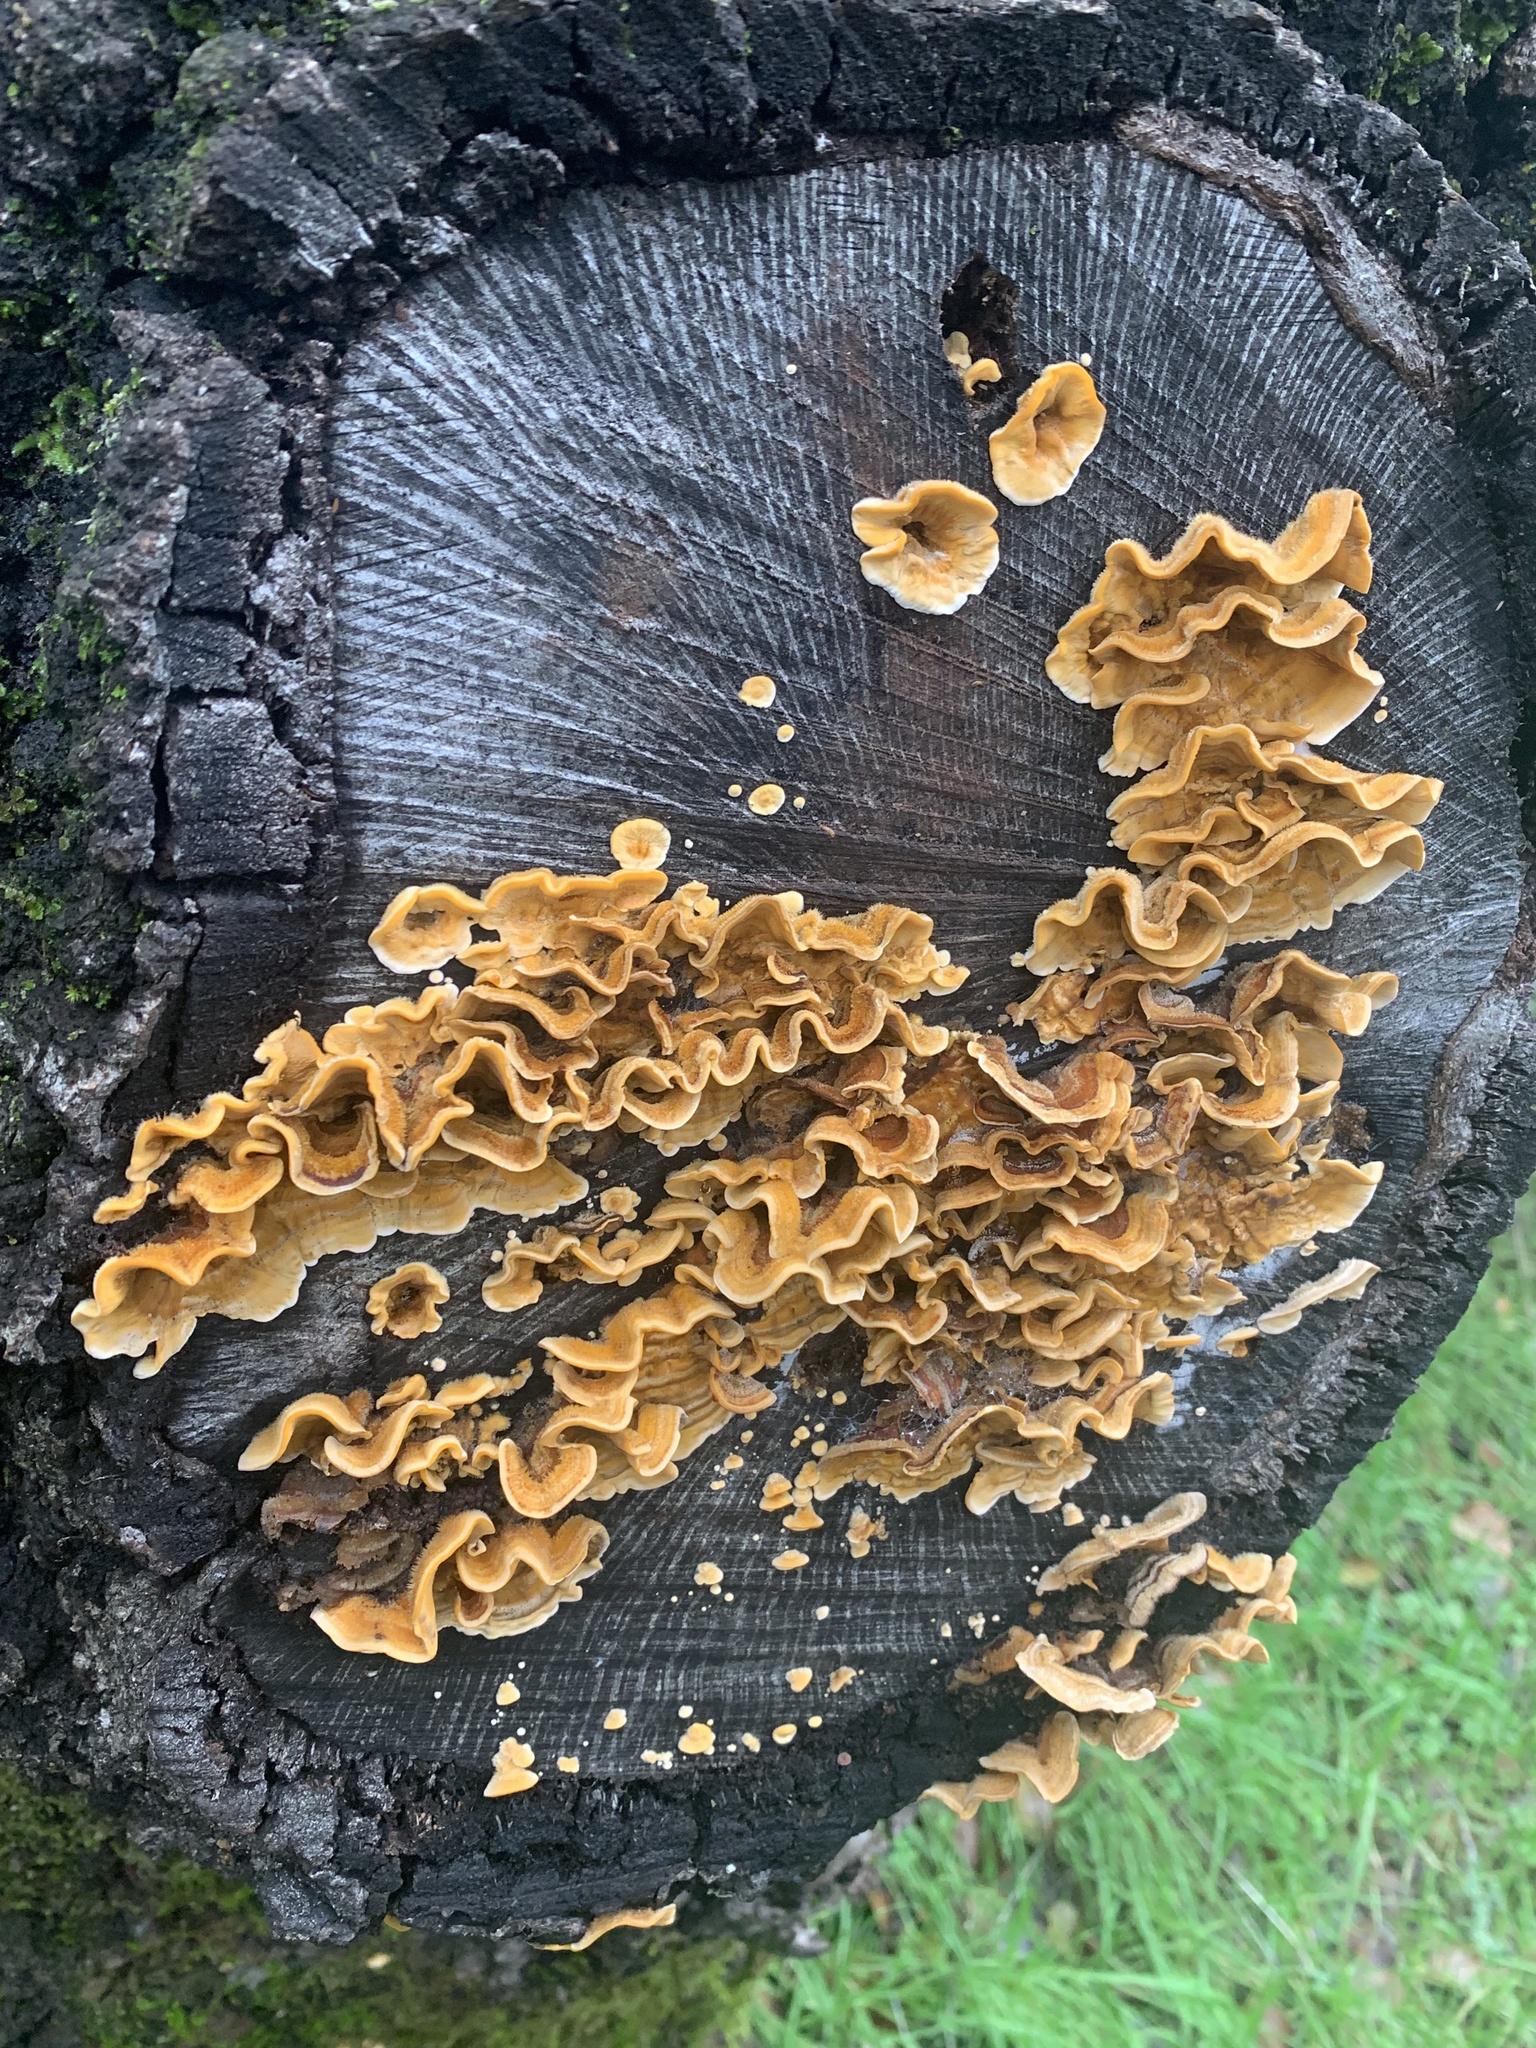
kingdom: Fungi
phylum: Basidiomycota
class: Agaricomycetes
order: Russulales
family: Stereaceae
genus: Stereum
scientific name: Stereum hirsutum
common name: Hairy curtain crust
